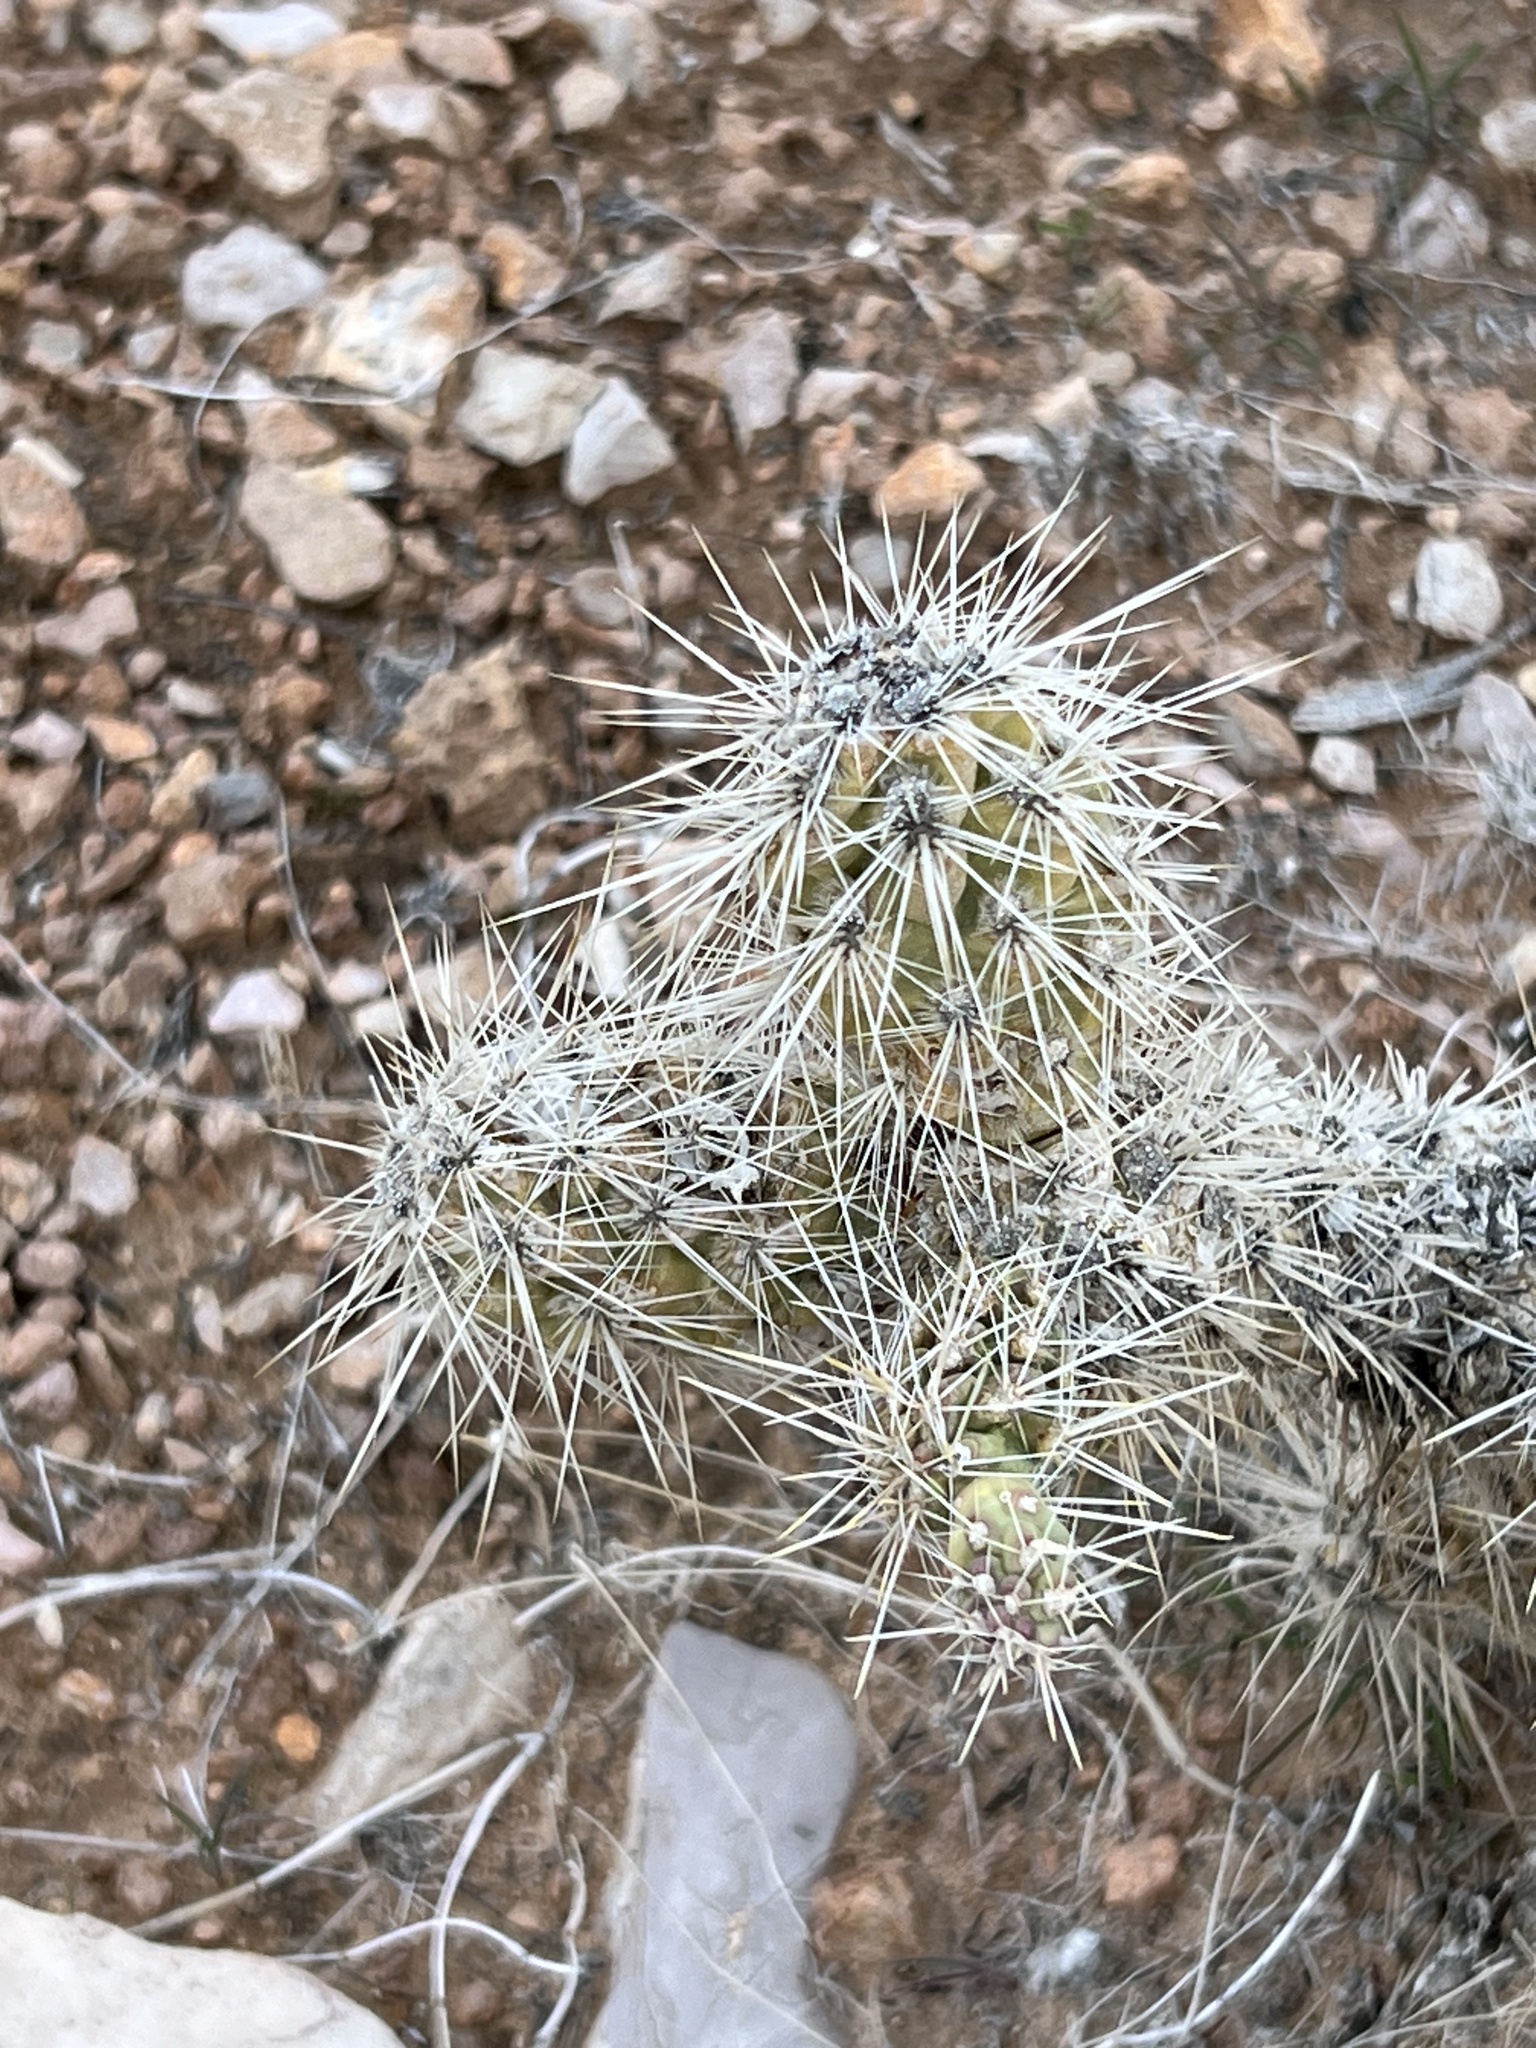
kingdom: Plantae
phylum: Tracheophyta
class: Magnoliopsida
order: Caryophyllales
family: Cactaceae
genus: Cylindropuntia
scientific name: Cylindropuntia echinocarpa
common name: Ground cholla
